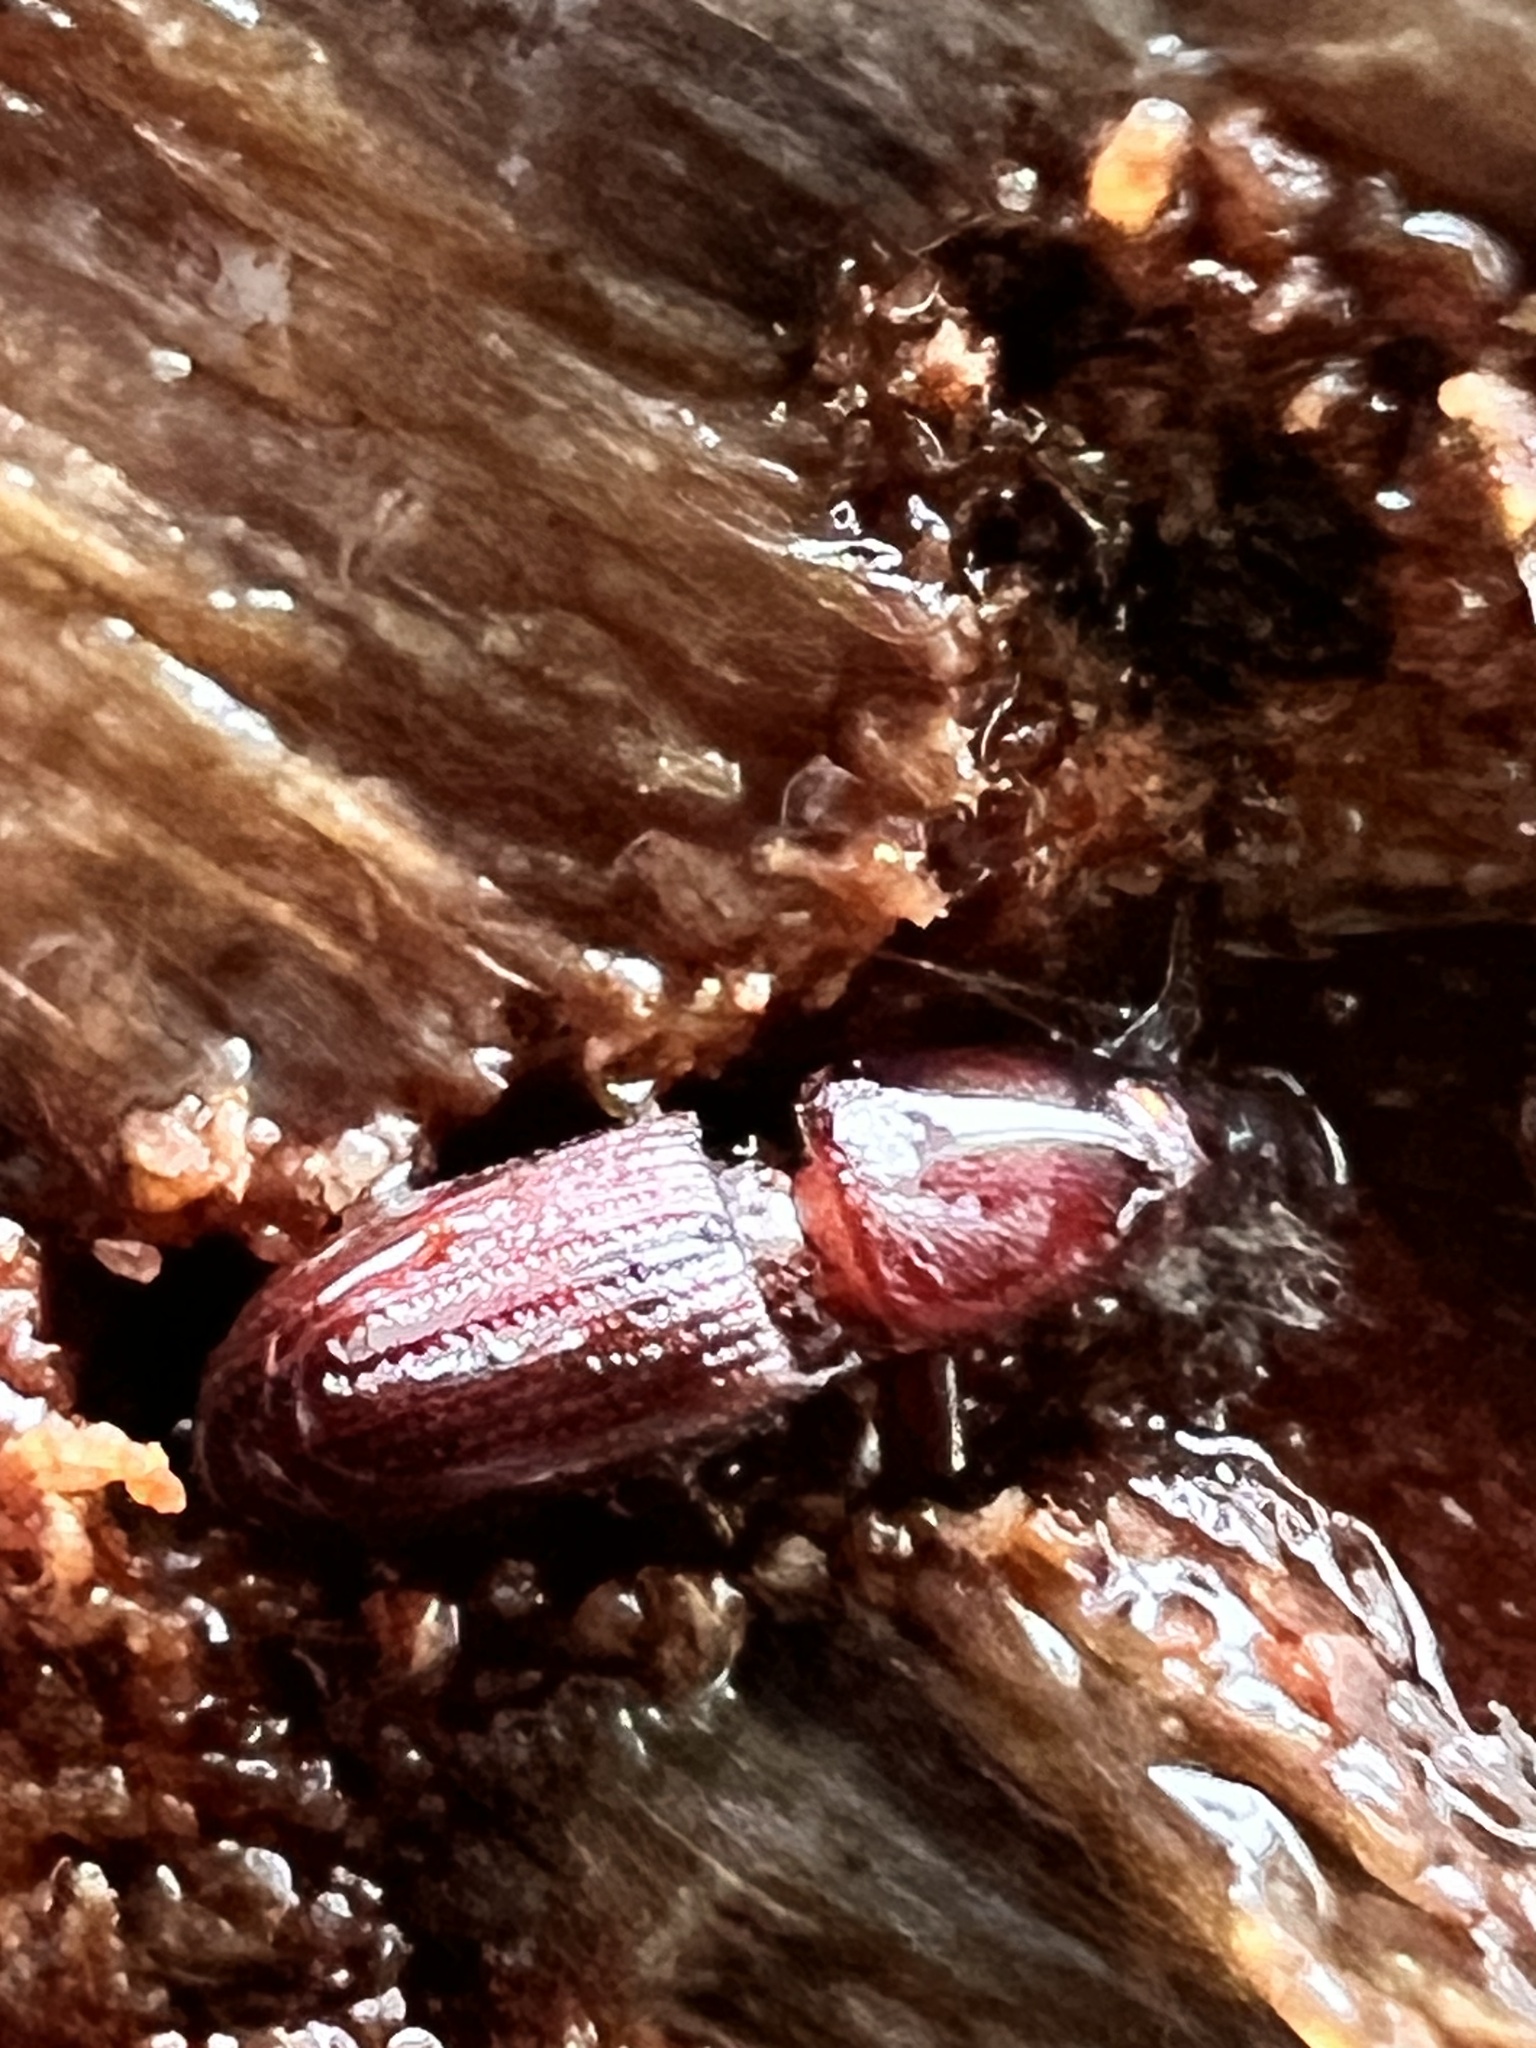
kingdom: Animalia
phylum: Arthropoda
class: Insecta
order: Coleoptera
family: Curculionidae
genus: Xenocnema
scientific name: Xenocnema spinipes
